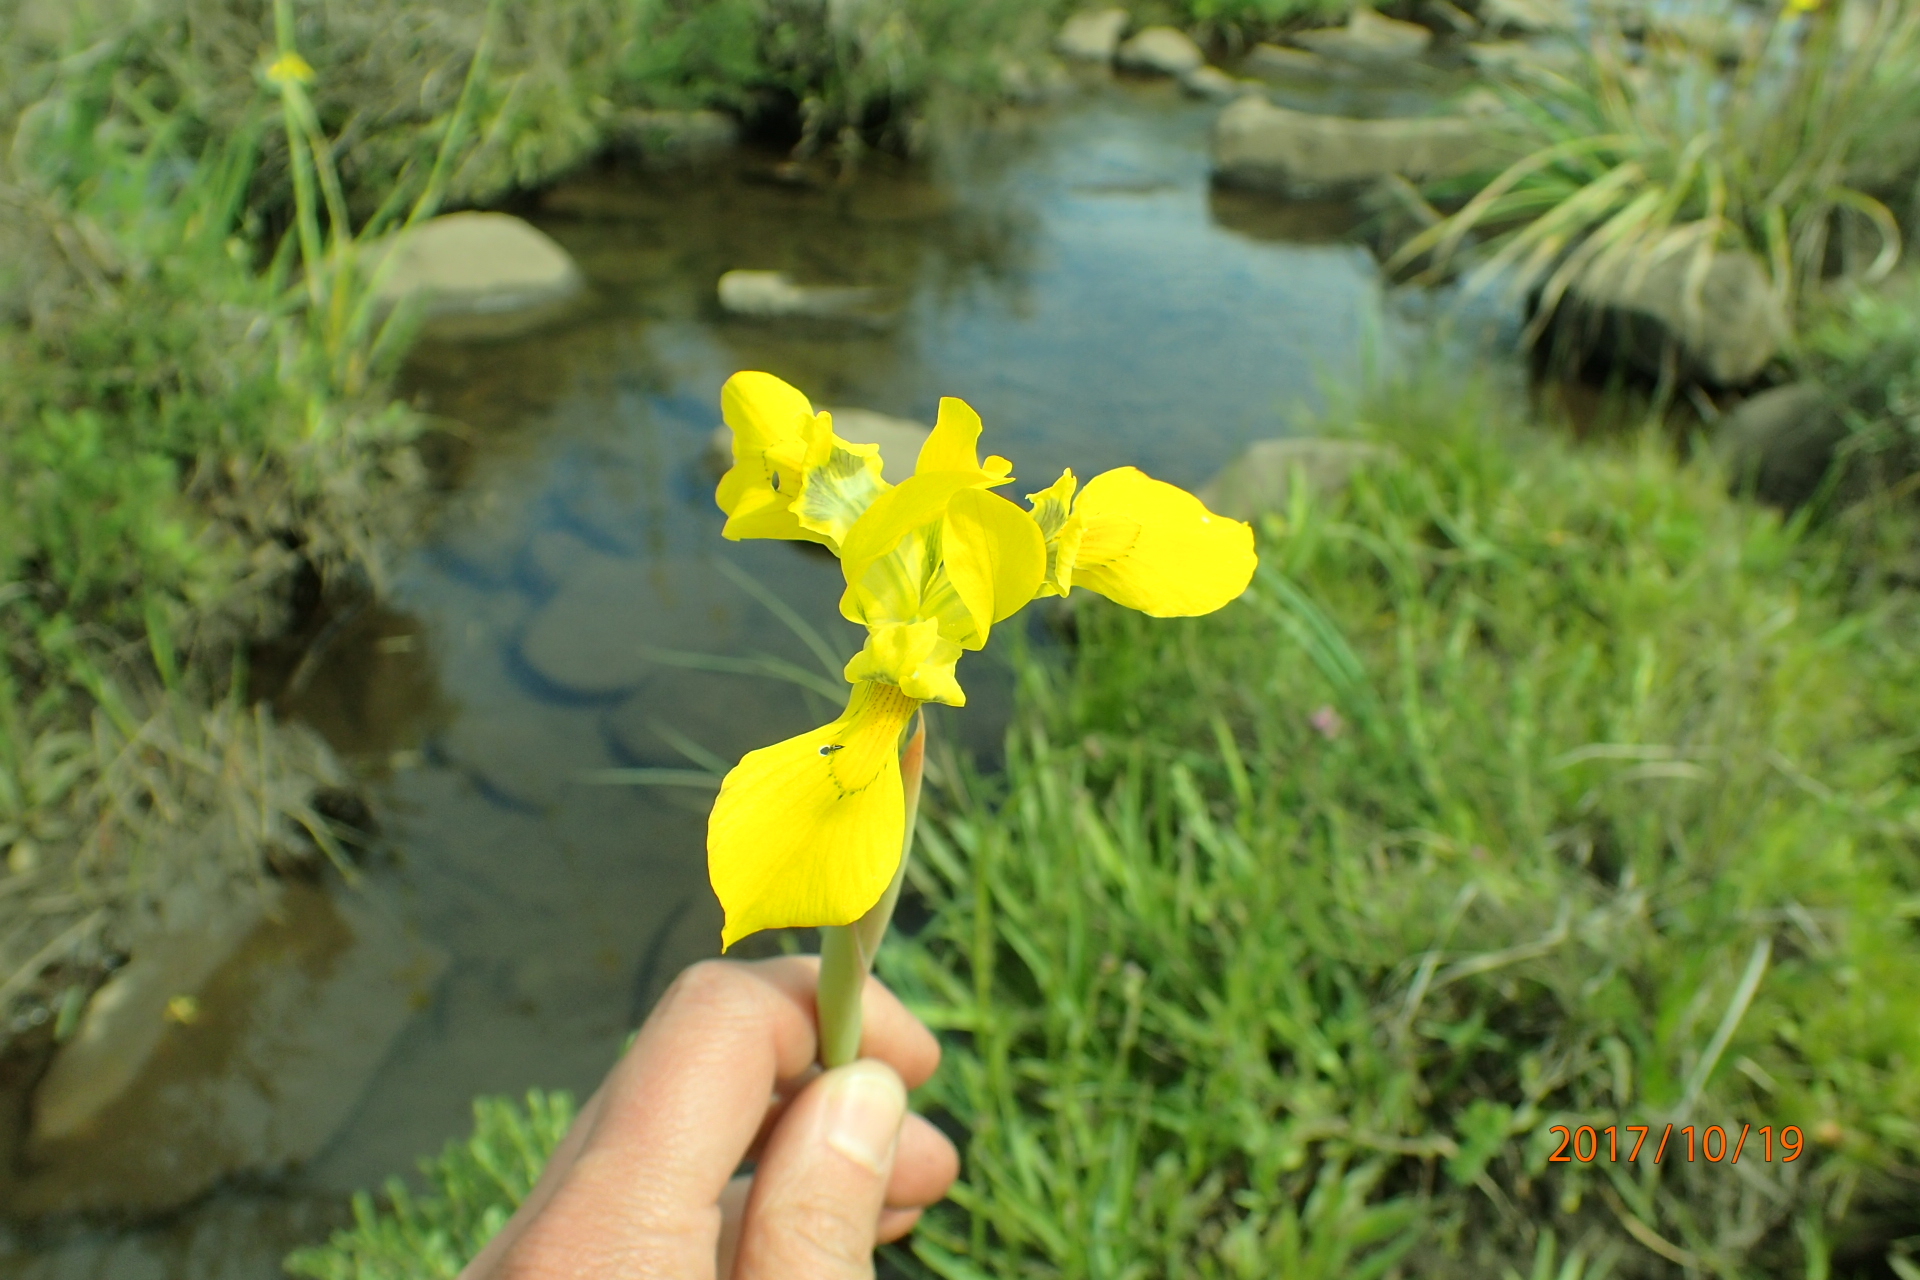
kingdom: Plantae
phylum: Tracheophyta
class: Liliopsida
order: Asparagales
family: Iridaceae
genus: Moraea
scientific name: Moraea huttonii
